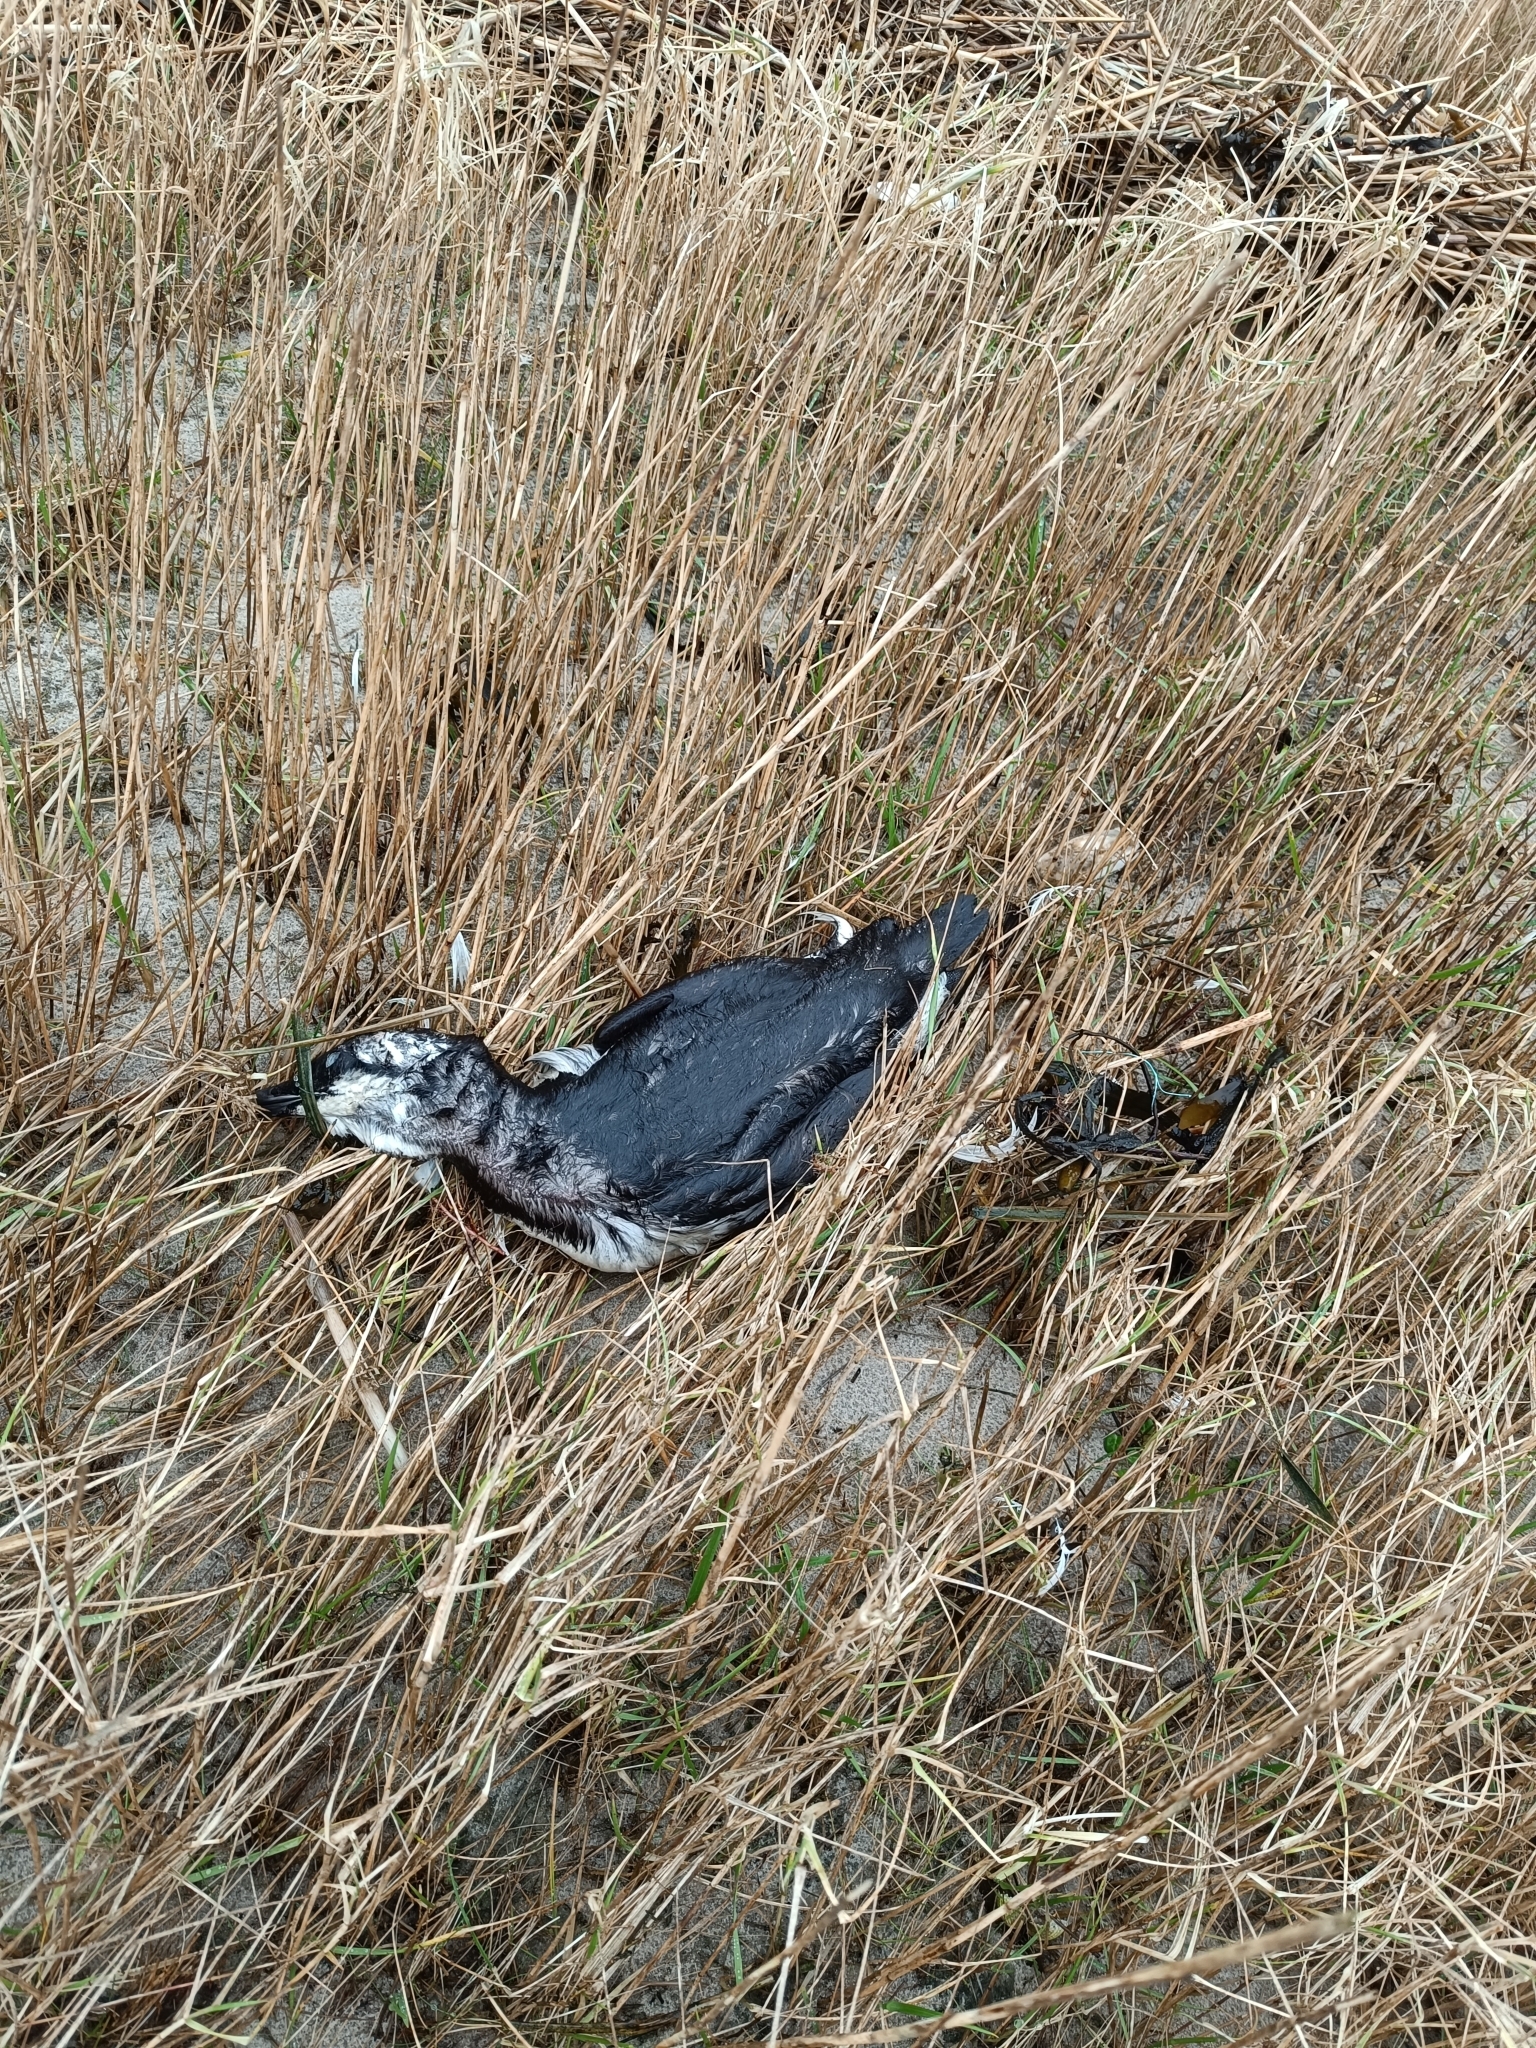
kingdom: Animalia
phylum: Chordata
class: Aves
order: Charadriiformes
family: Alcidae
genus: Uria
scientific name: Uria aalge
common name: Common murre
